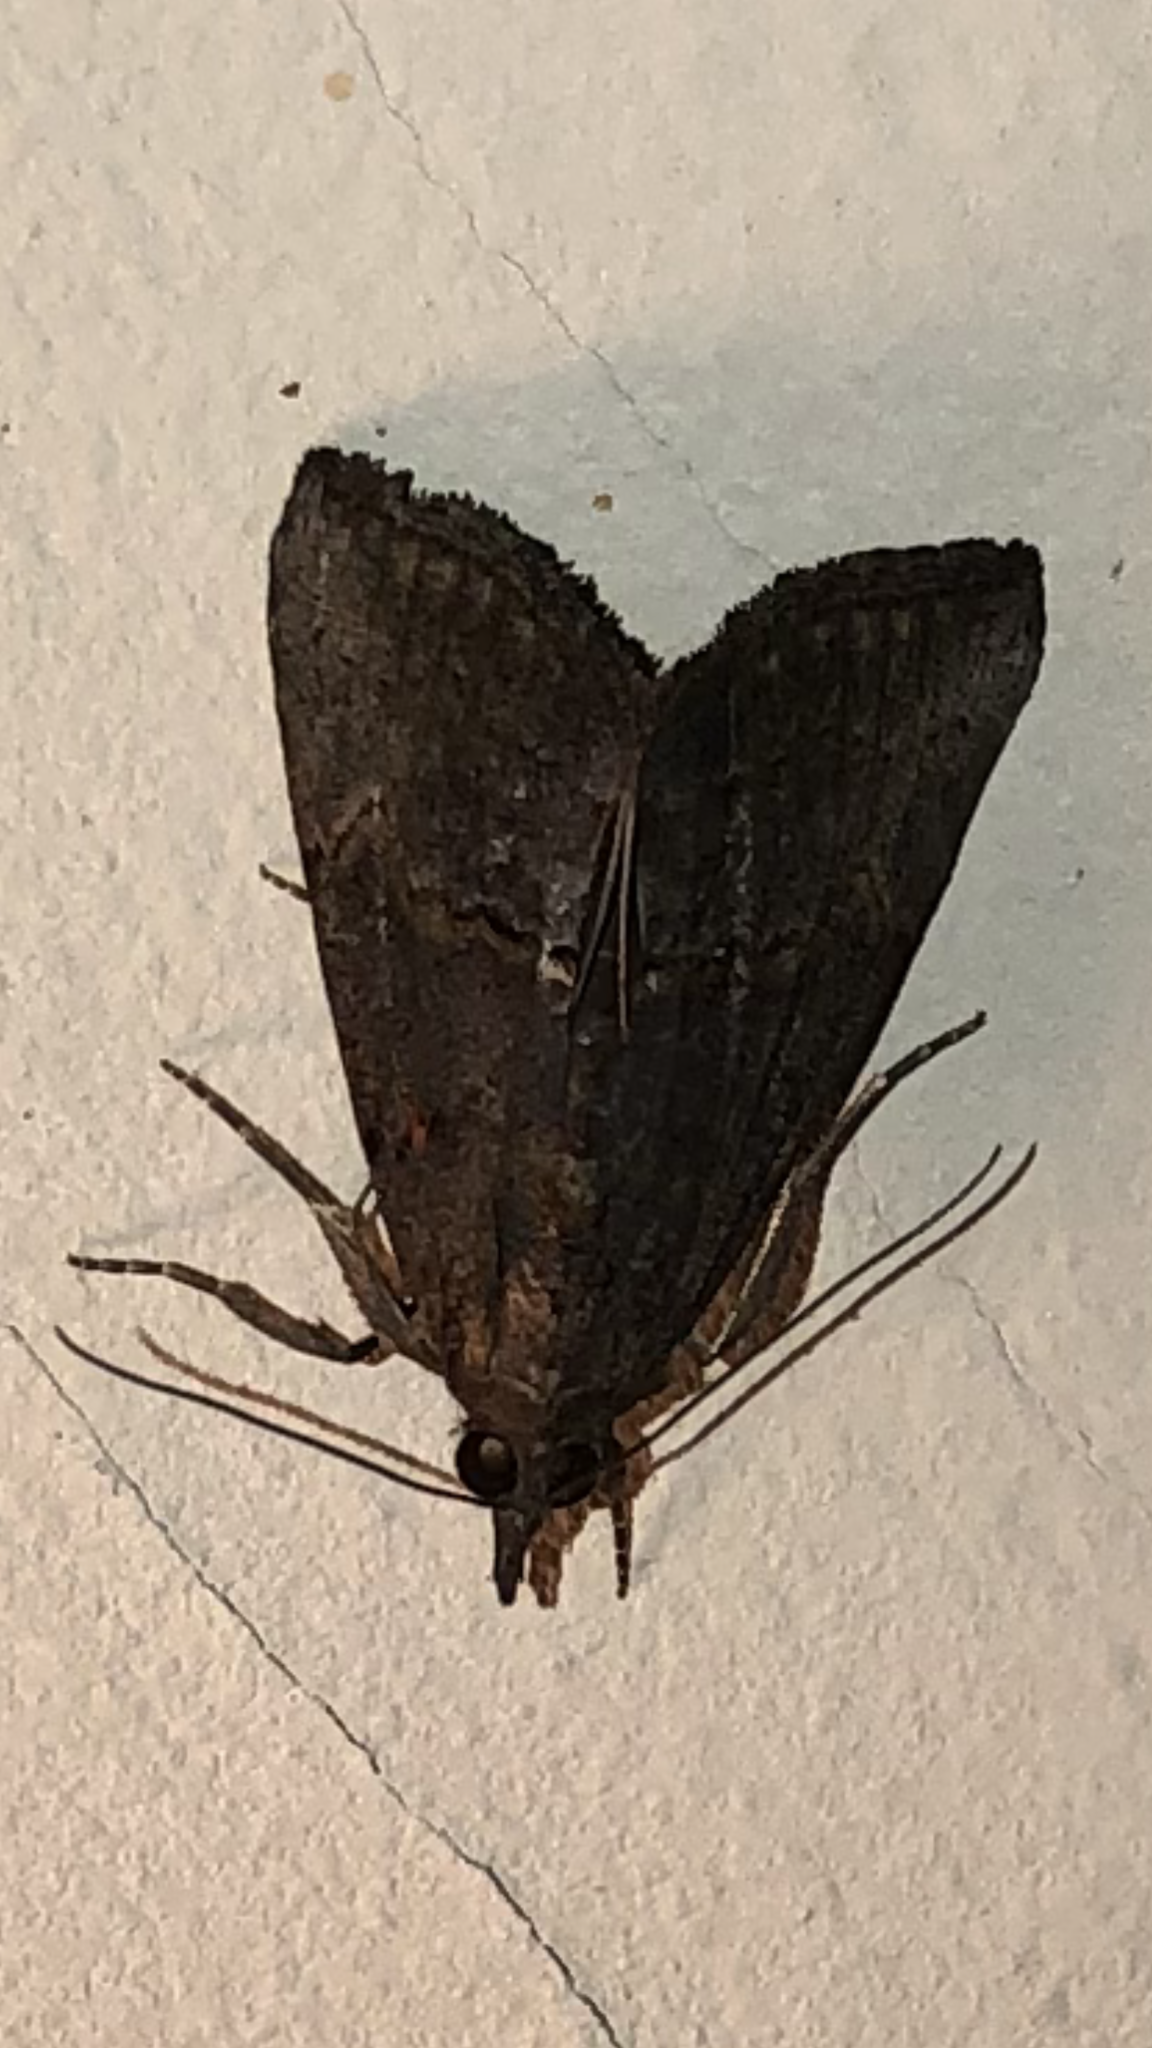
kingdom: Animalia
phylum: Arthropoda
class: Insecta
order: Lepidoptera
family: Erebidae
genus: Hypena
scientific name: Hypena scabra
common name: Green cloverworm
